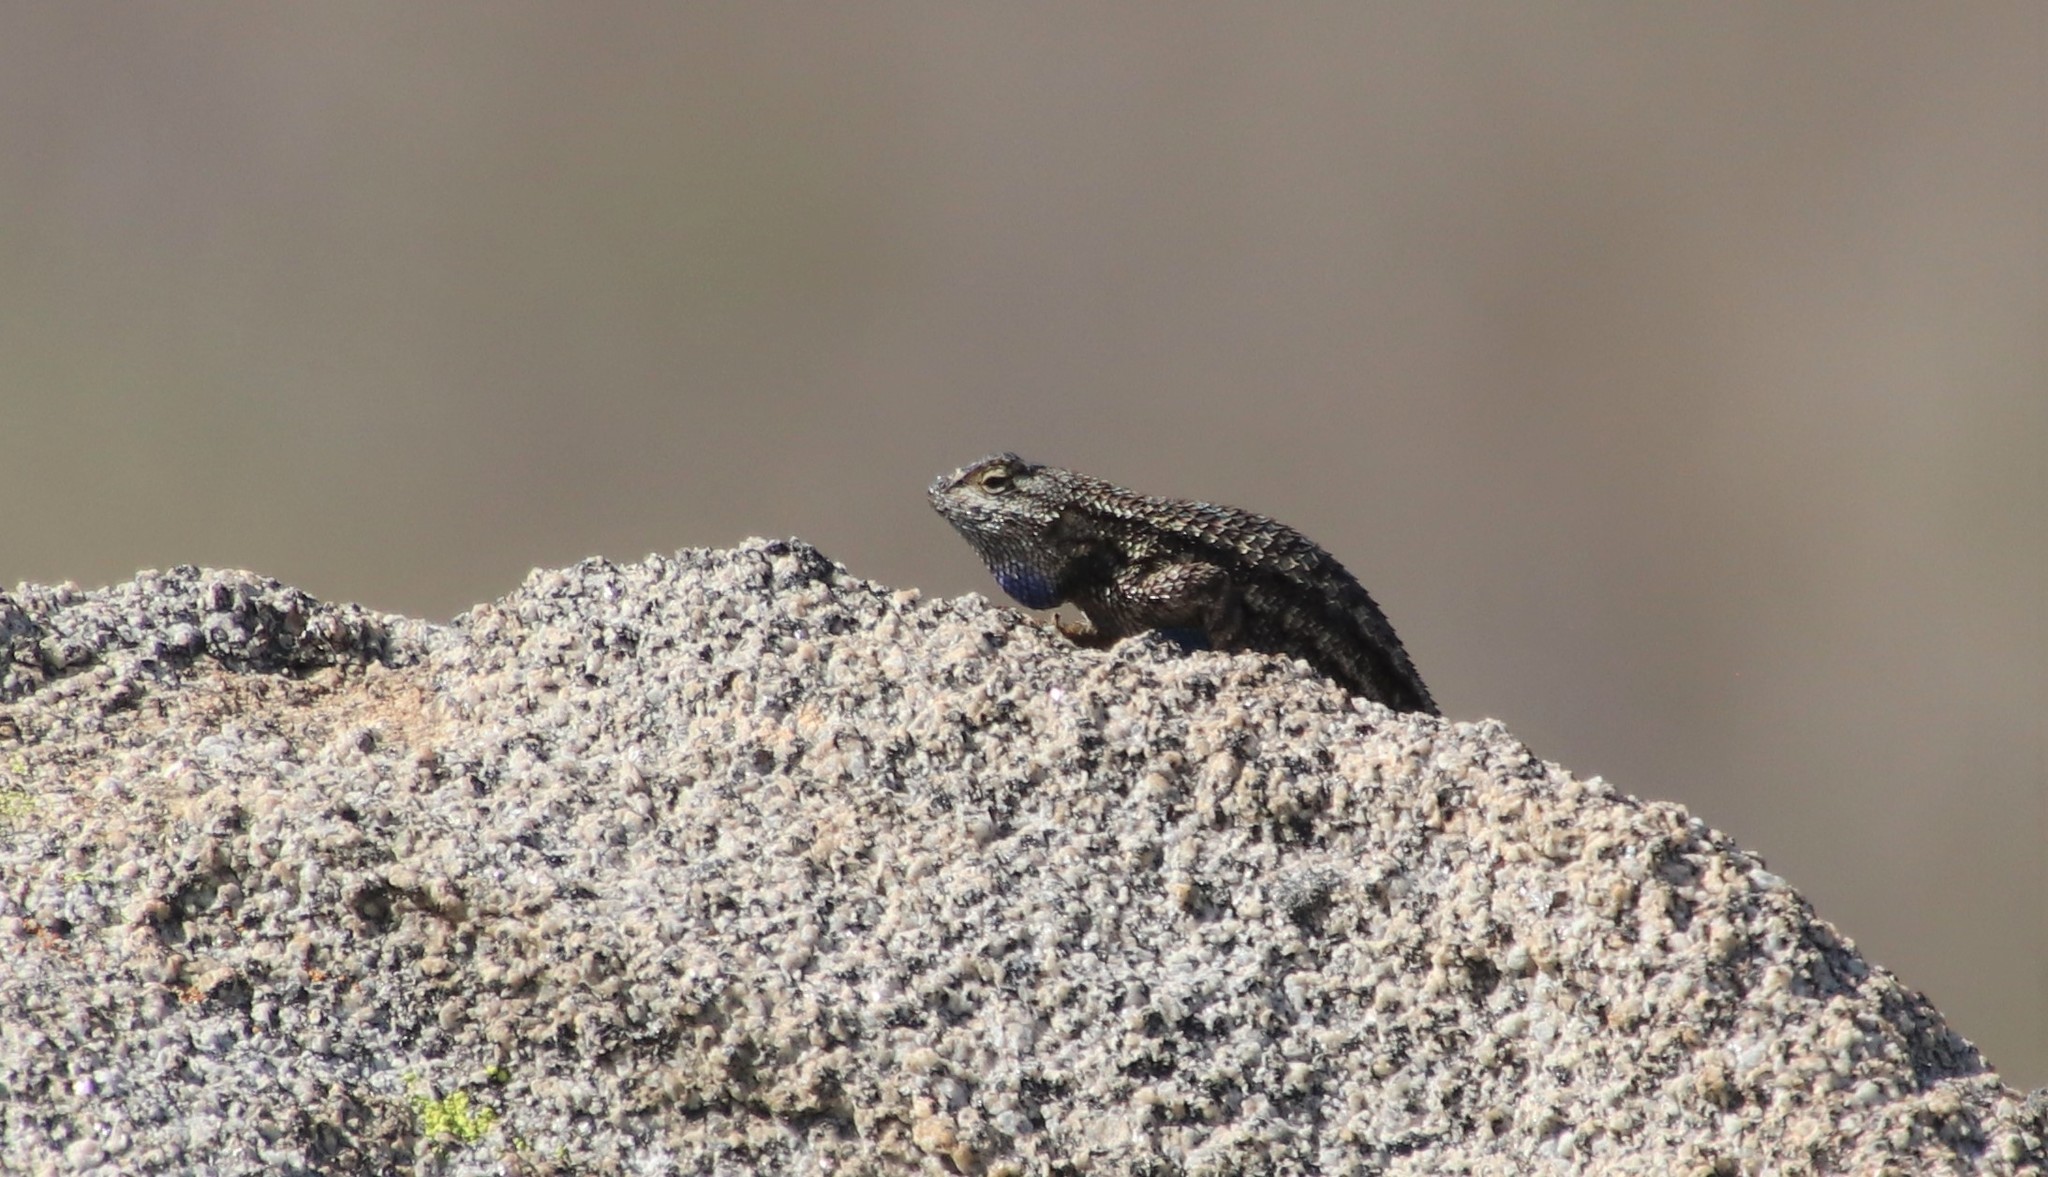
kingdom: Animalia
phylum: Chordata
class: Squamata
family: Phrynosomatidae
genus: Sceloporus
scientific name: Sceloporus occidentalis
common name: Western fence lizard
